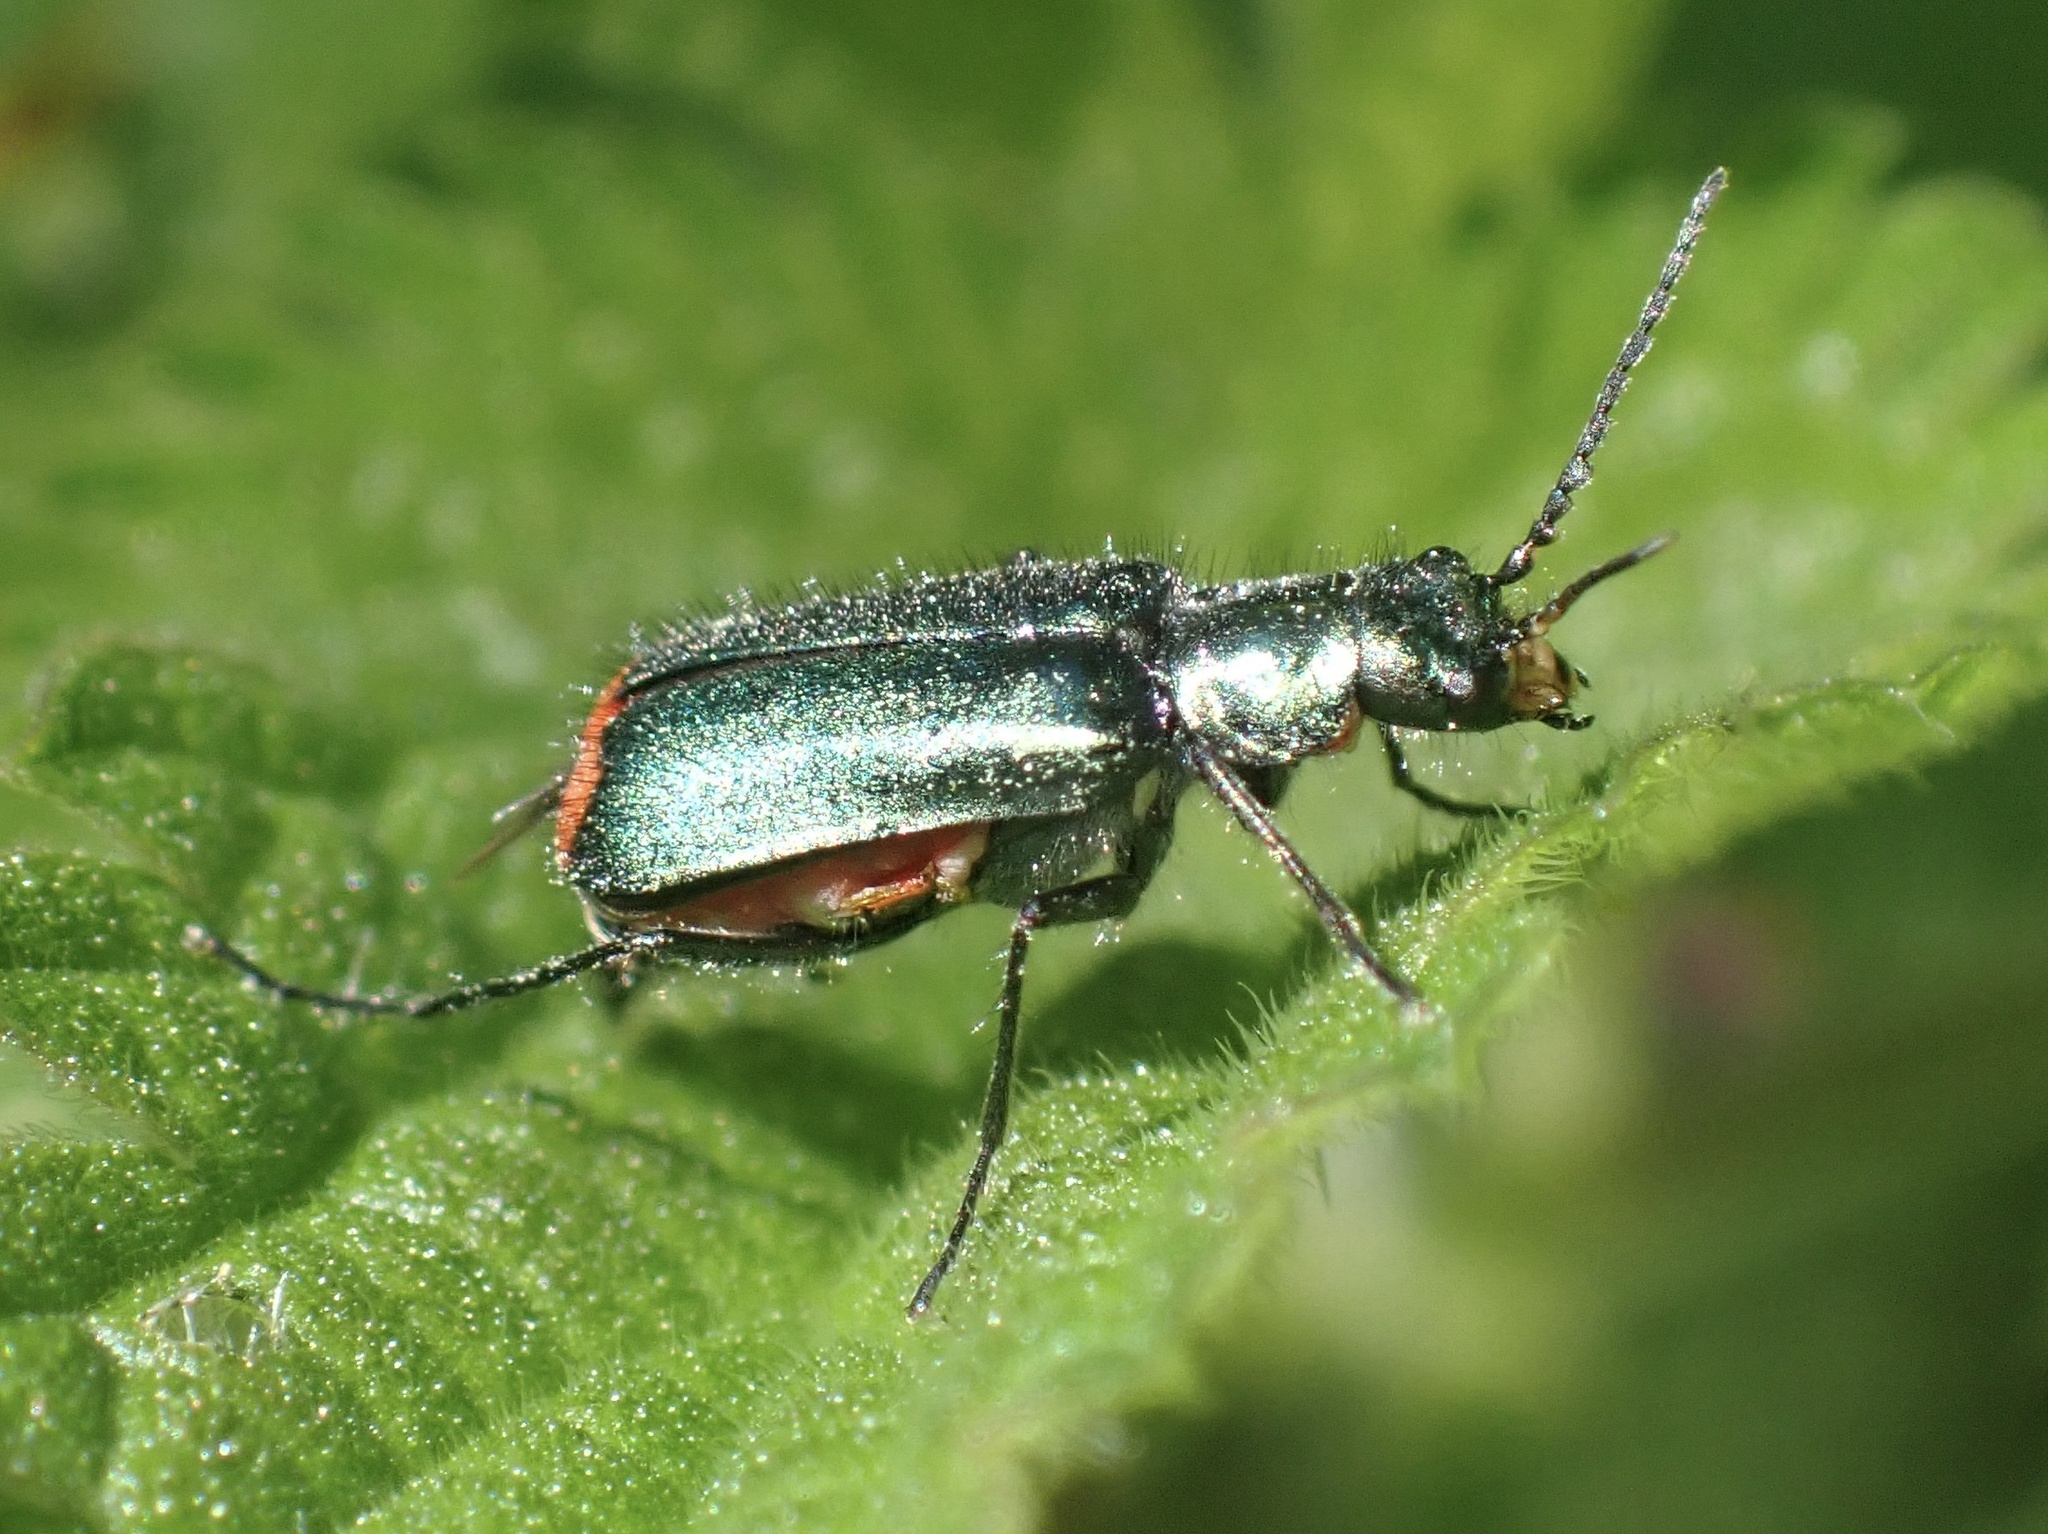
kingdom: Animalia
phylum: Arthropoda
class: Insecta
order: Coleoptera
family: Melyridae
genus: Malachius
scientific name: Malachius bipustulatus
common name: Malachite beetle
